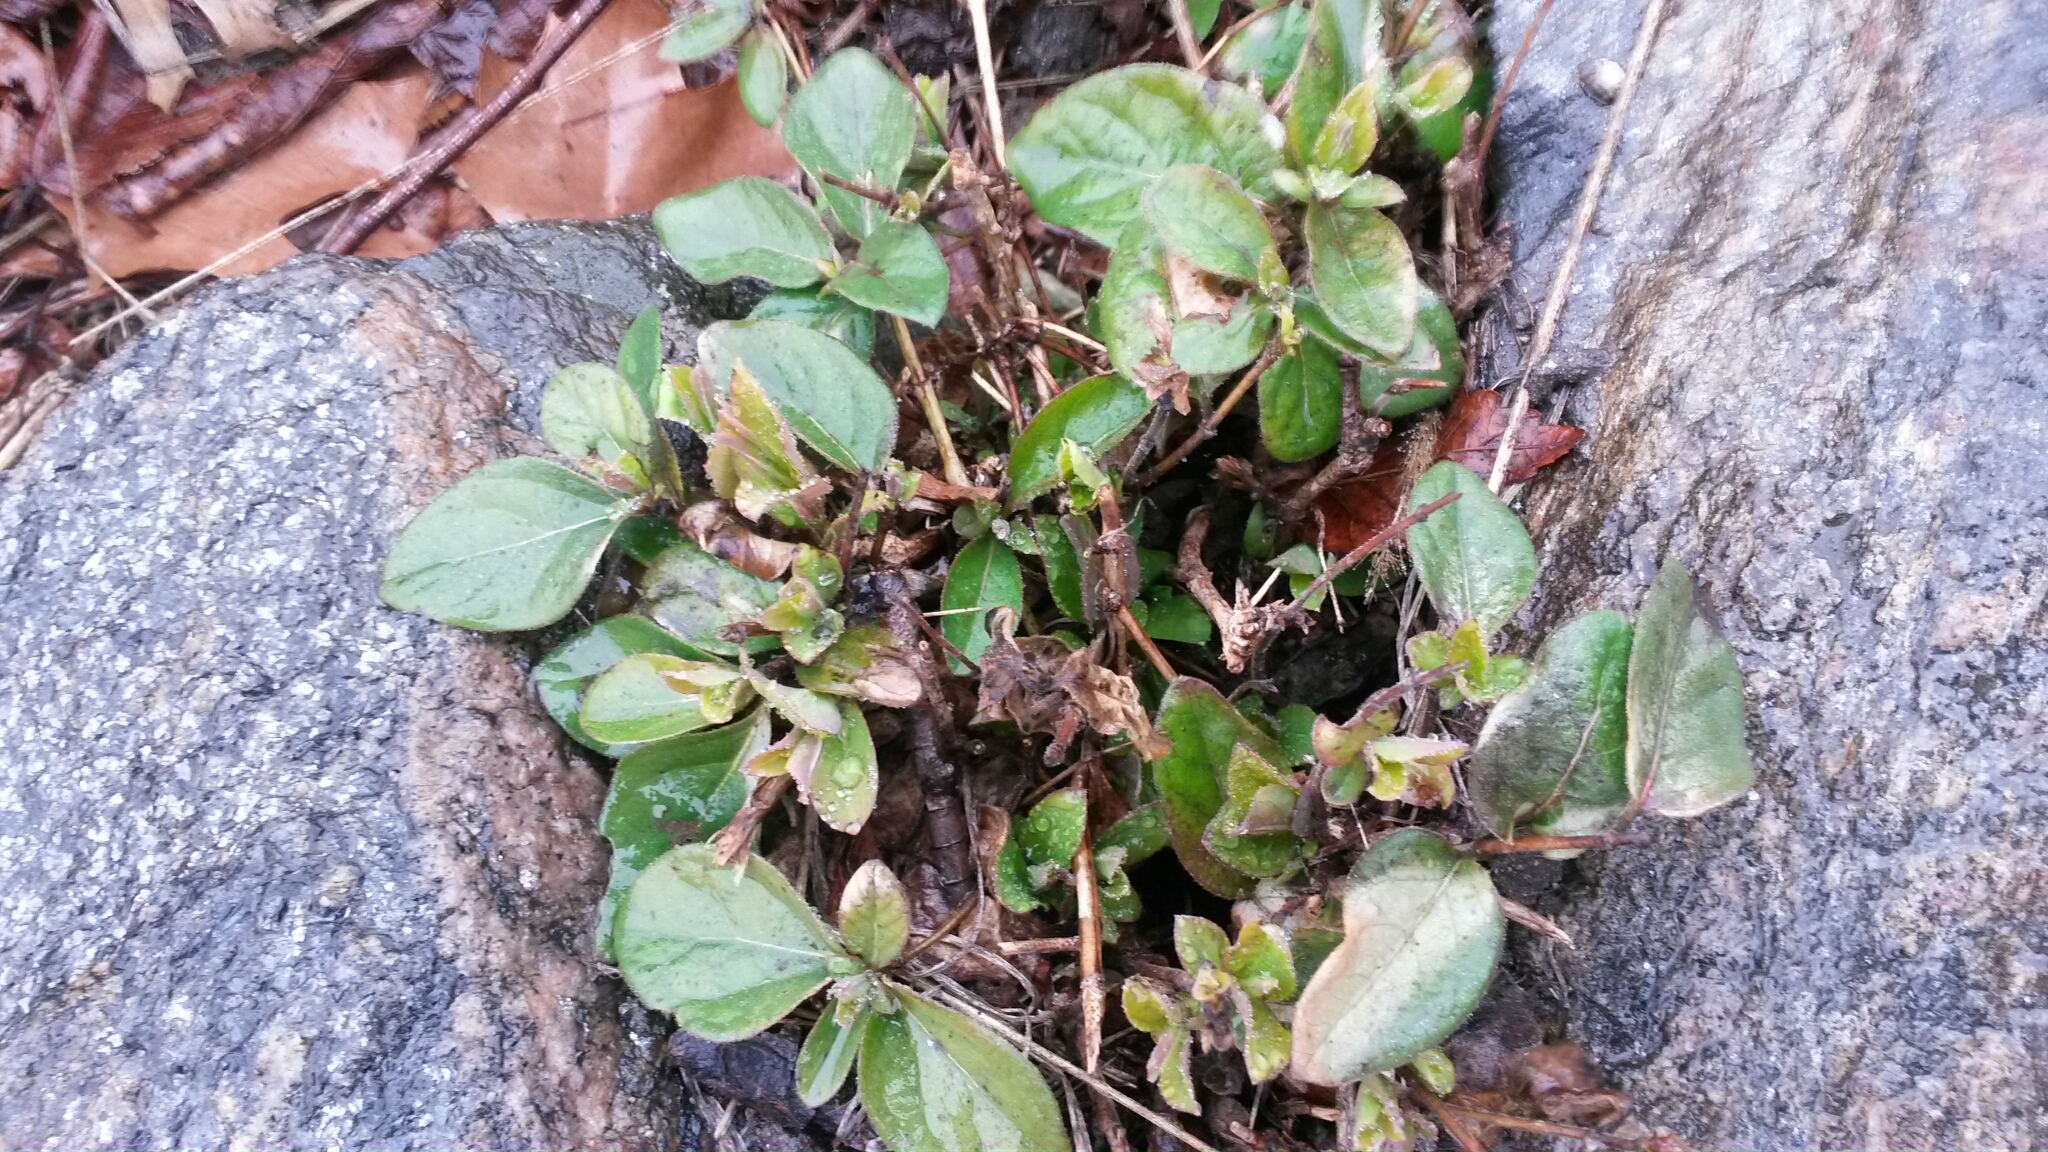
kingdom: Plantae
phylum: Tracheophyta
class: Magnoliopsida
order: Dipsacales
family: Caprifoliaceae
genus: Lonicera
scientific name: Lonicera japonica
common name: Japanese honeysuckle
